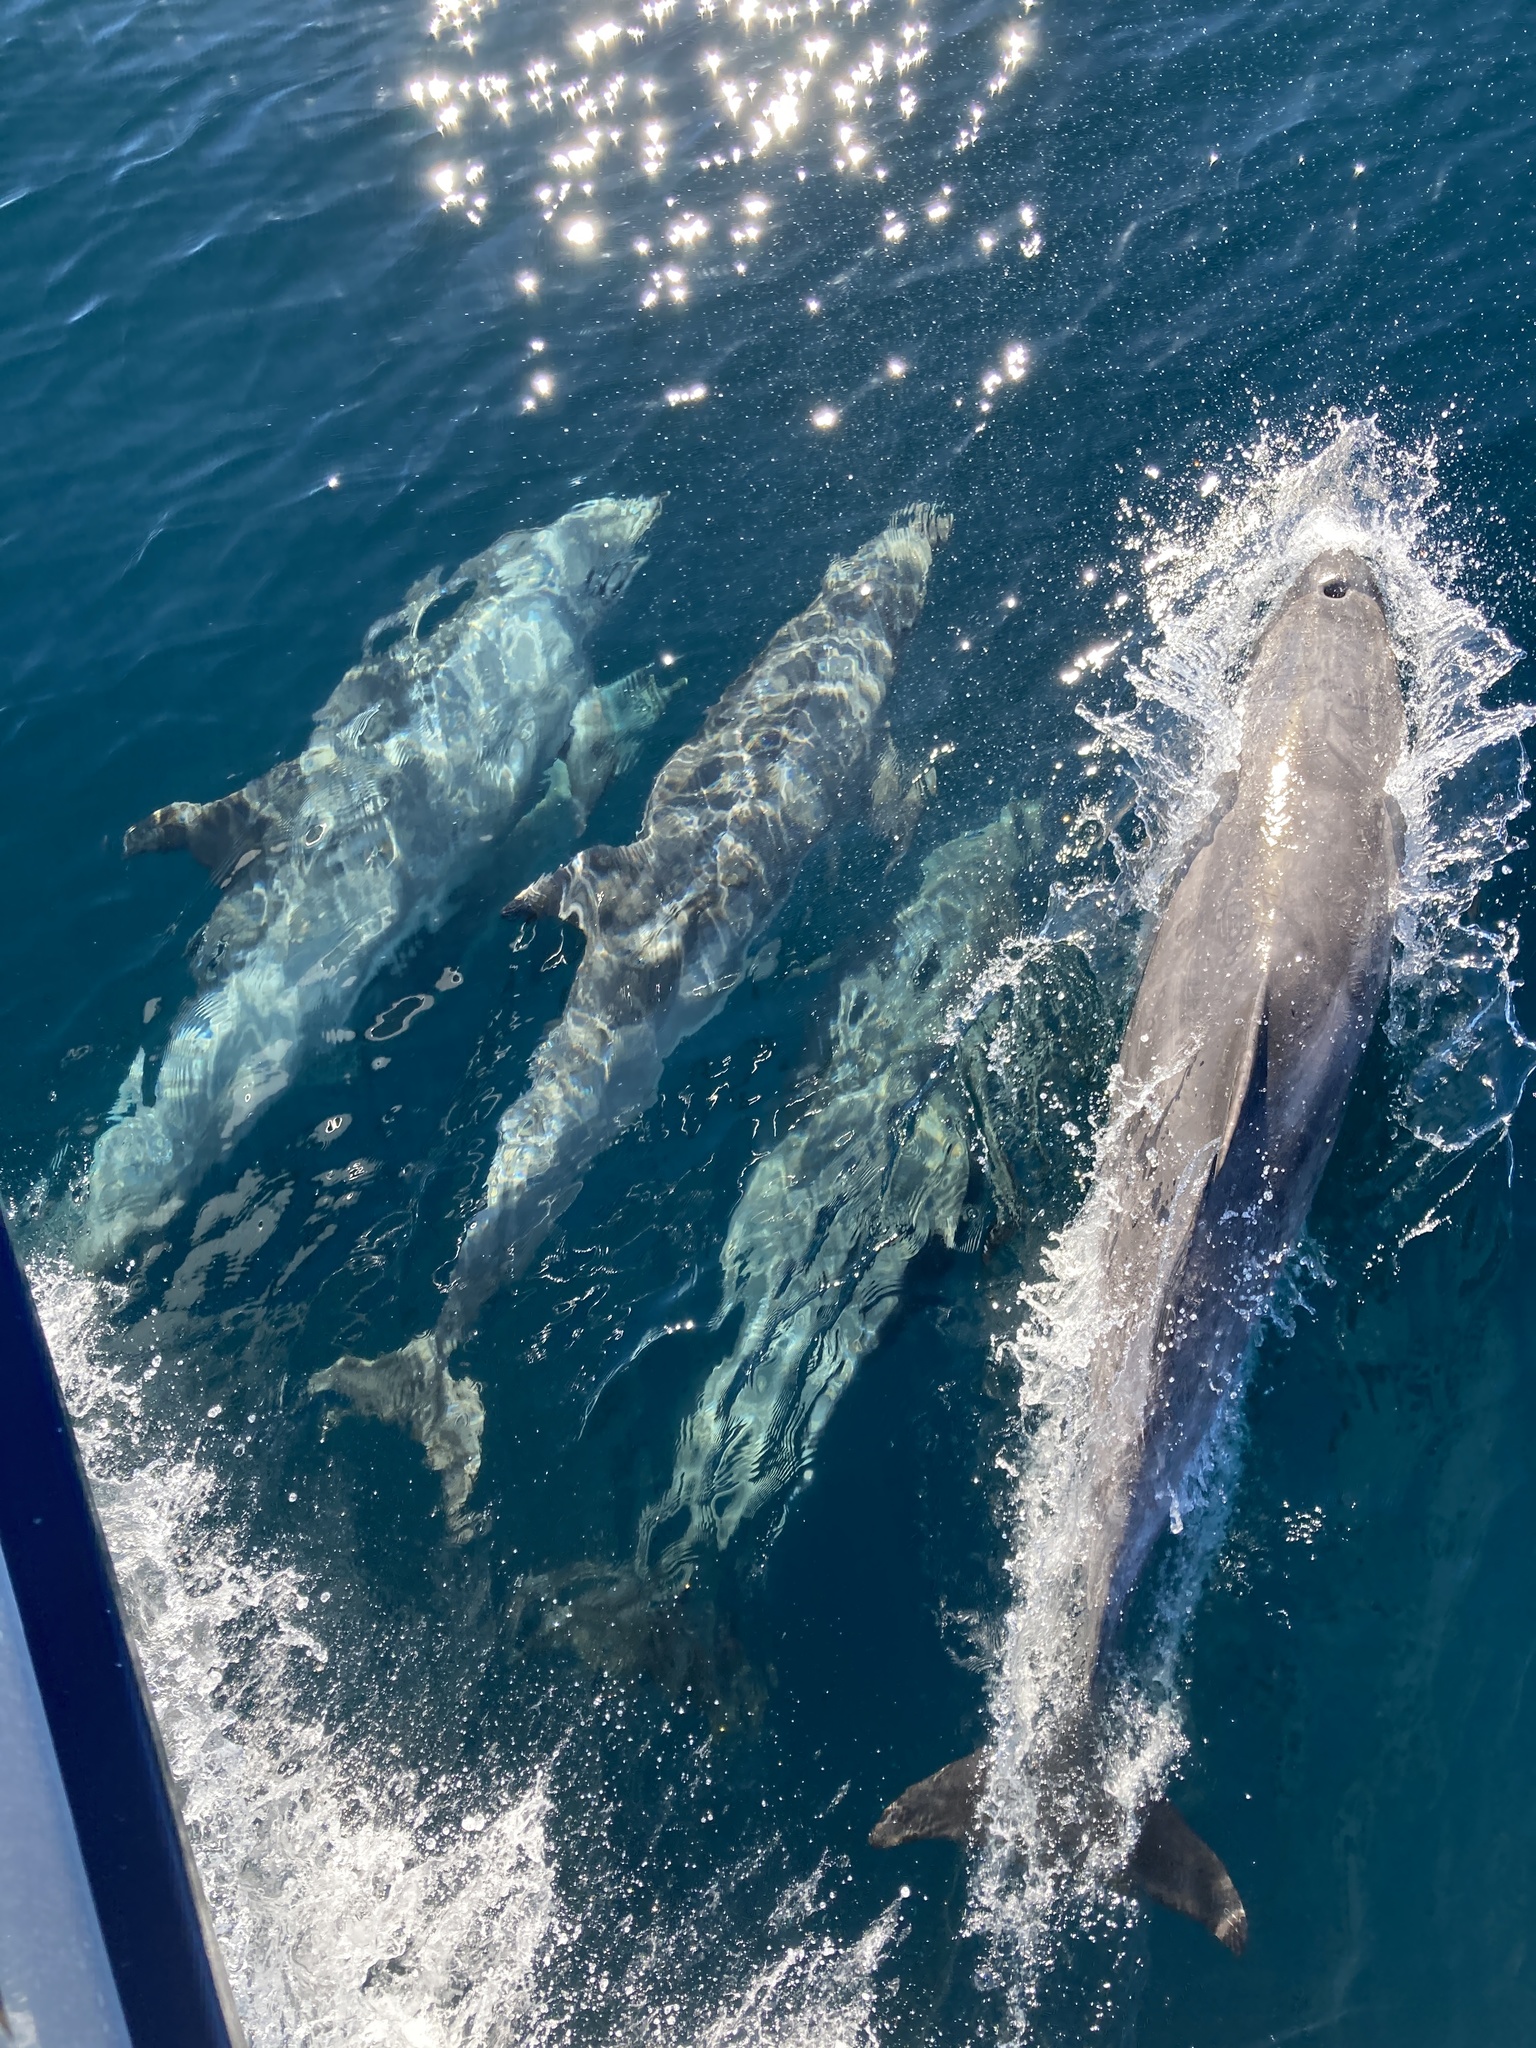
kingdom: Animalia
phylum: Chordata
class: Mammalia
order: Cetacea
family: Delphinidae
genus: Tursiops
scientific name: Tursiops truncatus
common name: Bottlenose dolphin
